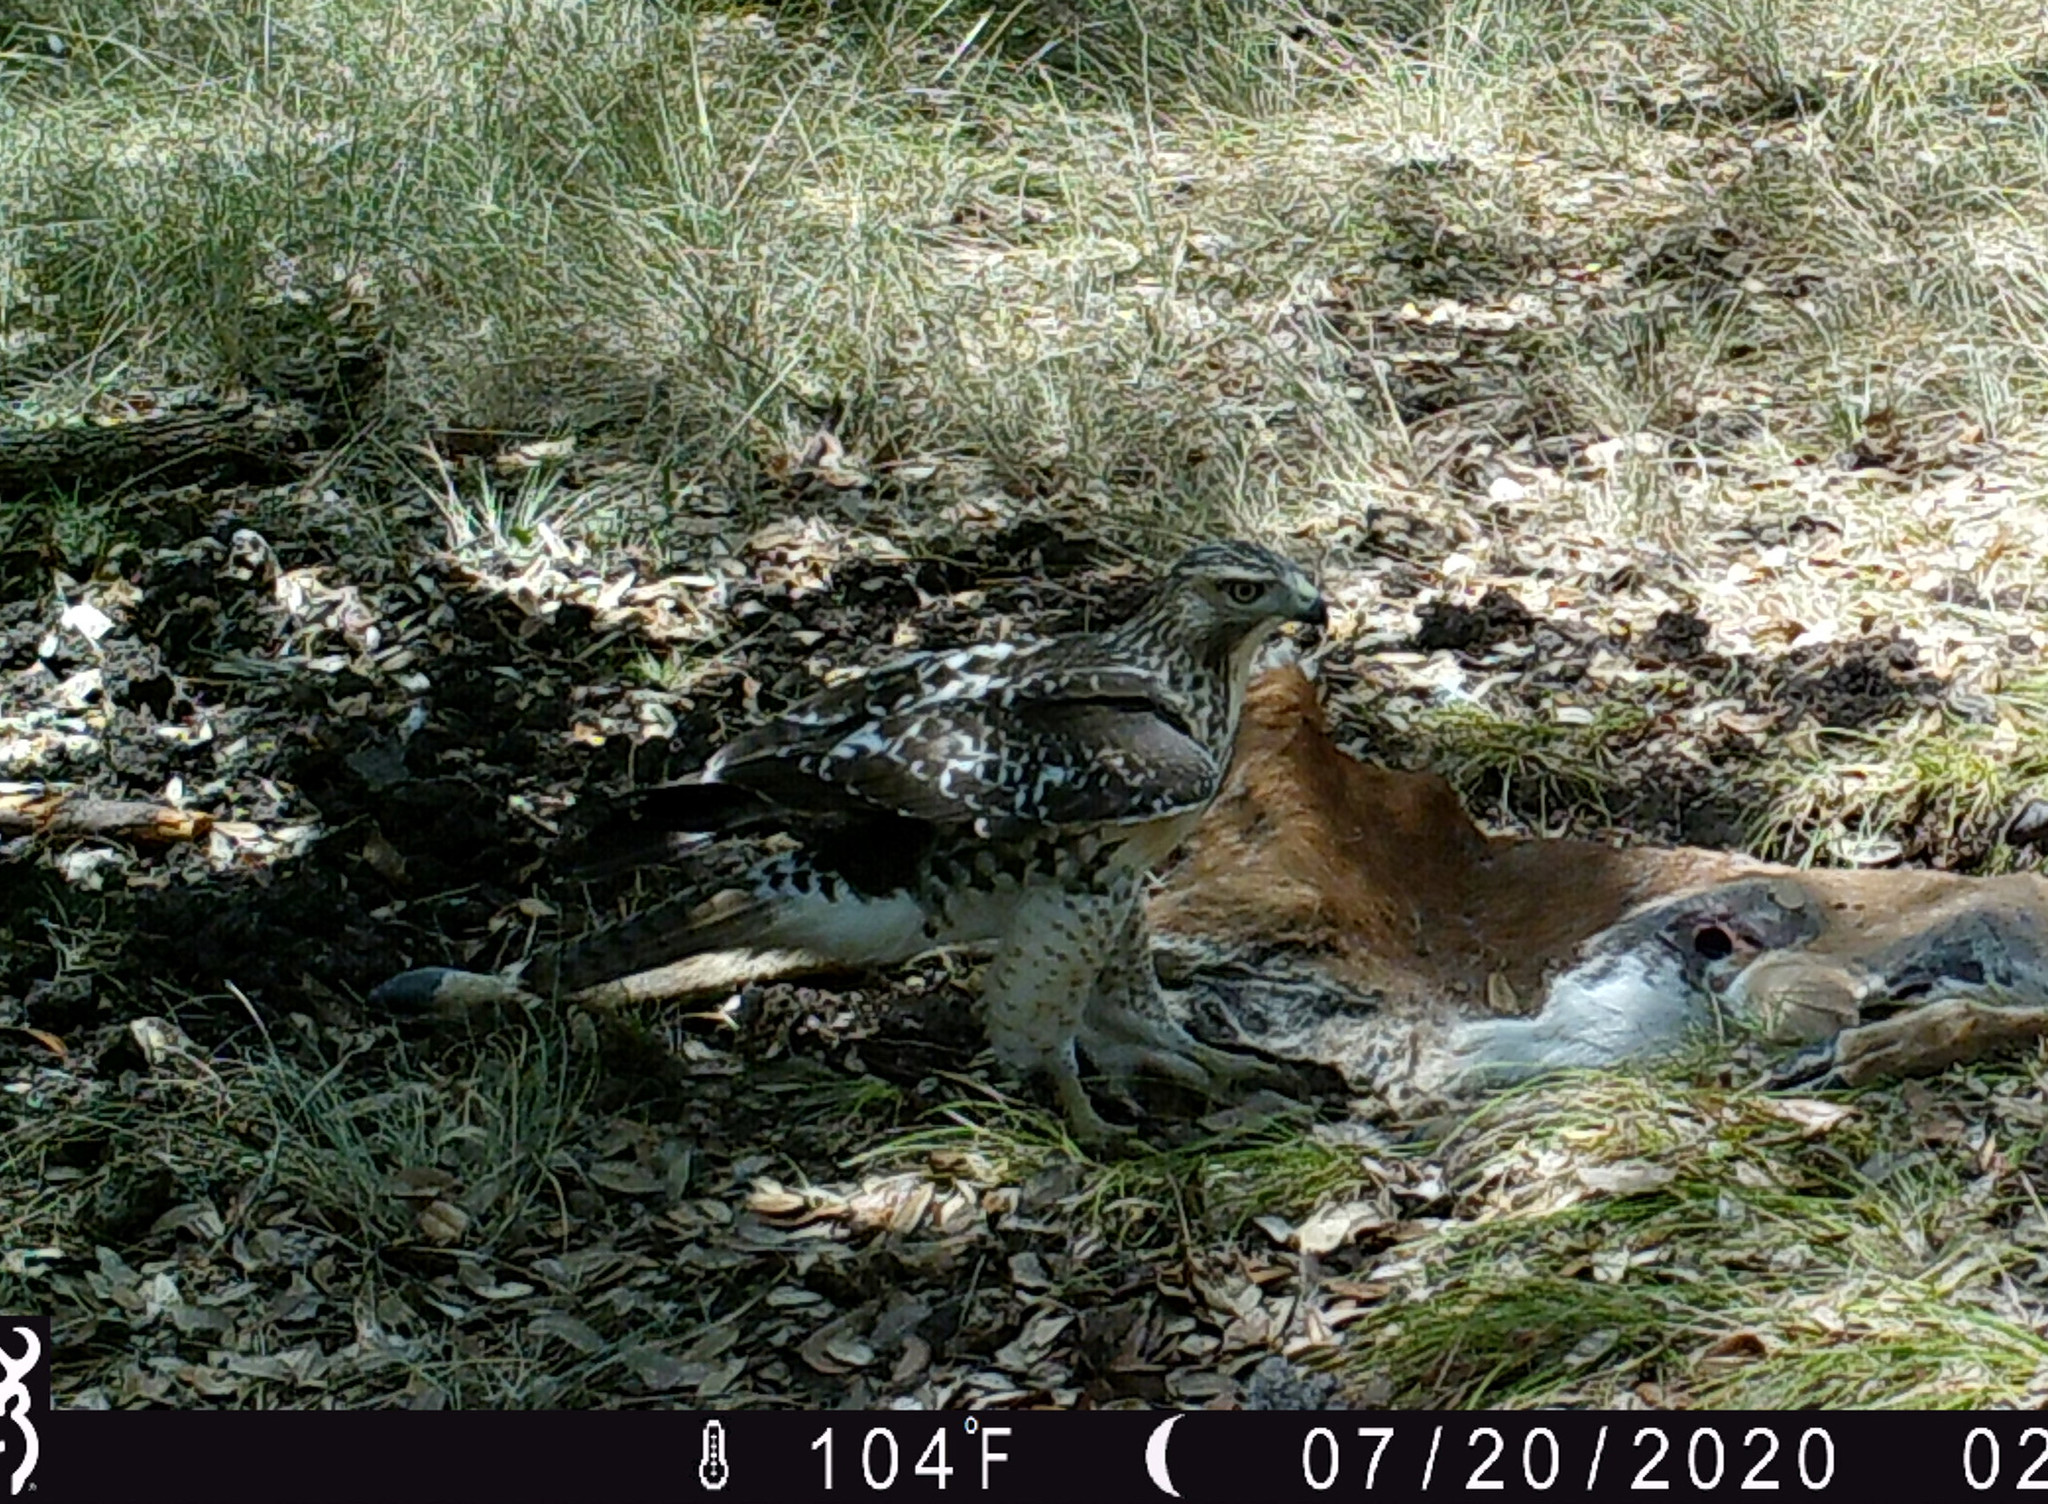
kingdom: Animalia
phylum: Chordata
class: Aves
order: Accipitriformes
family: Accipitridae
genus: Buteo
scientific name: Buteo jamaicensis
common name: Red-tailed hawk
